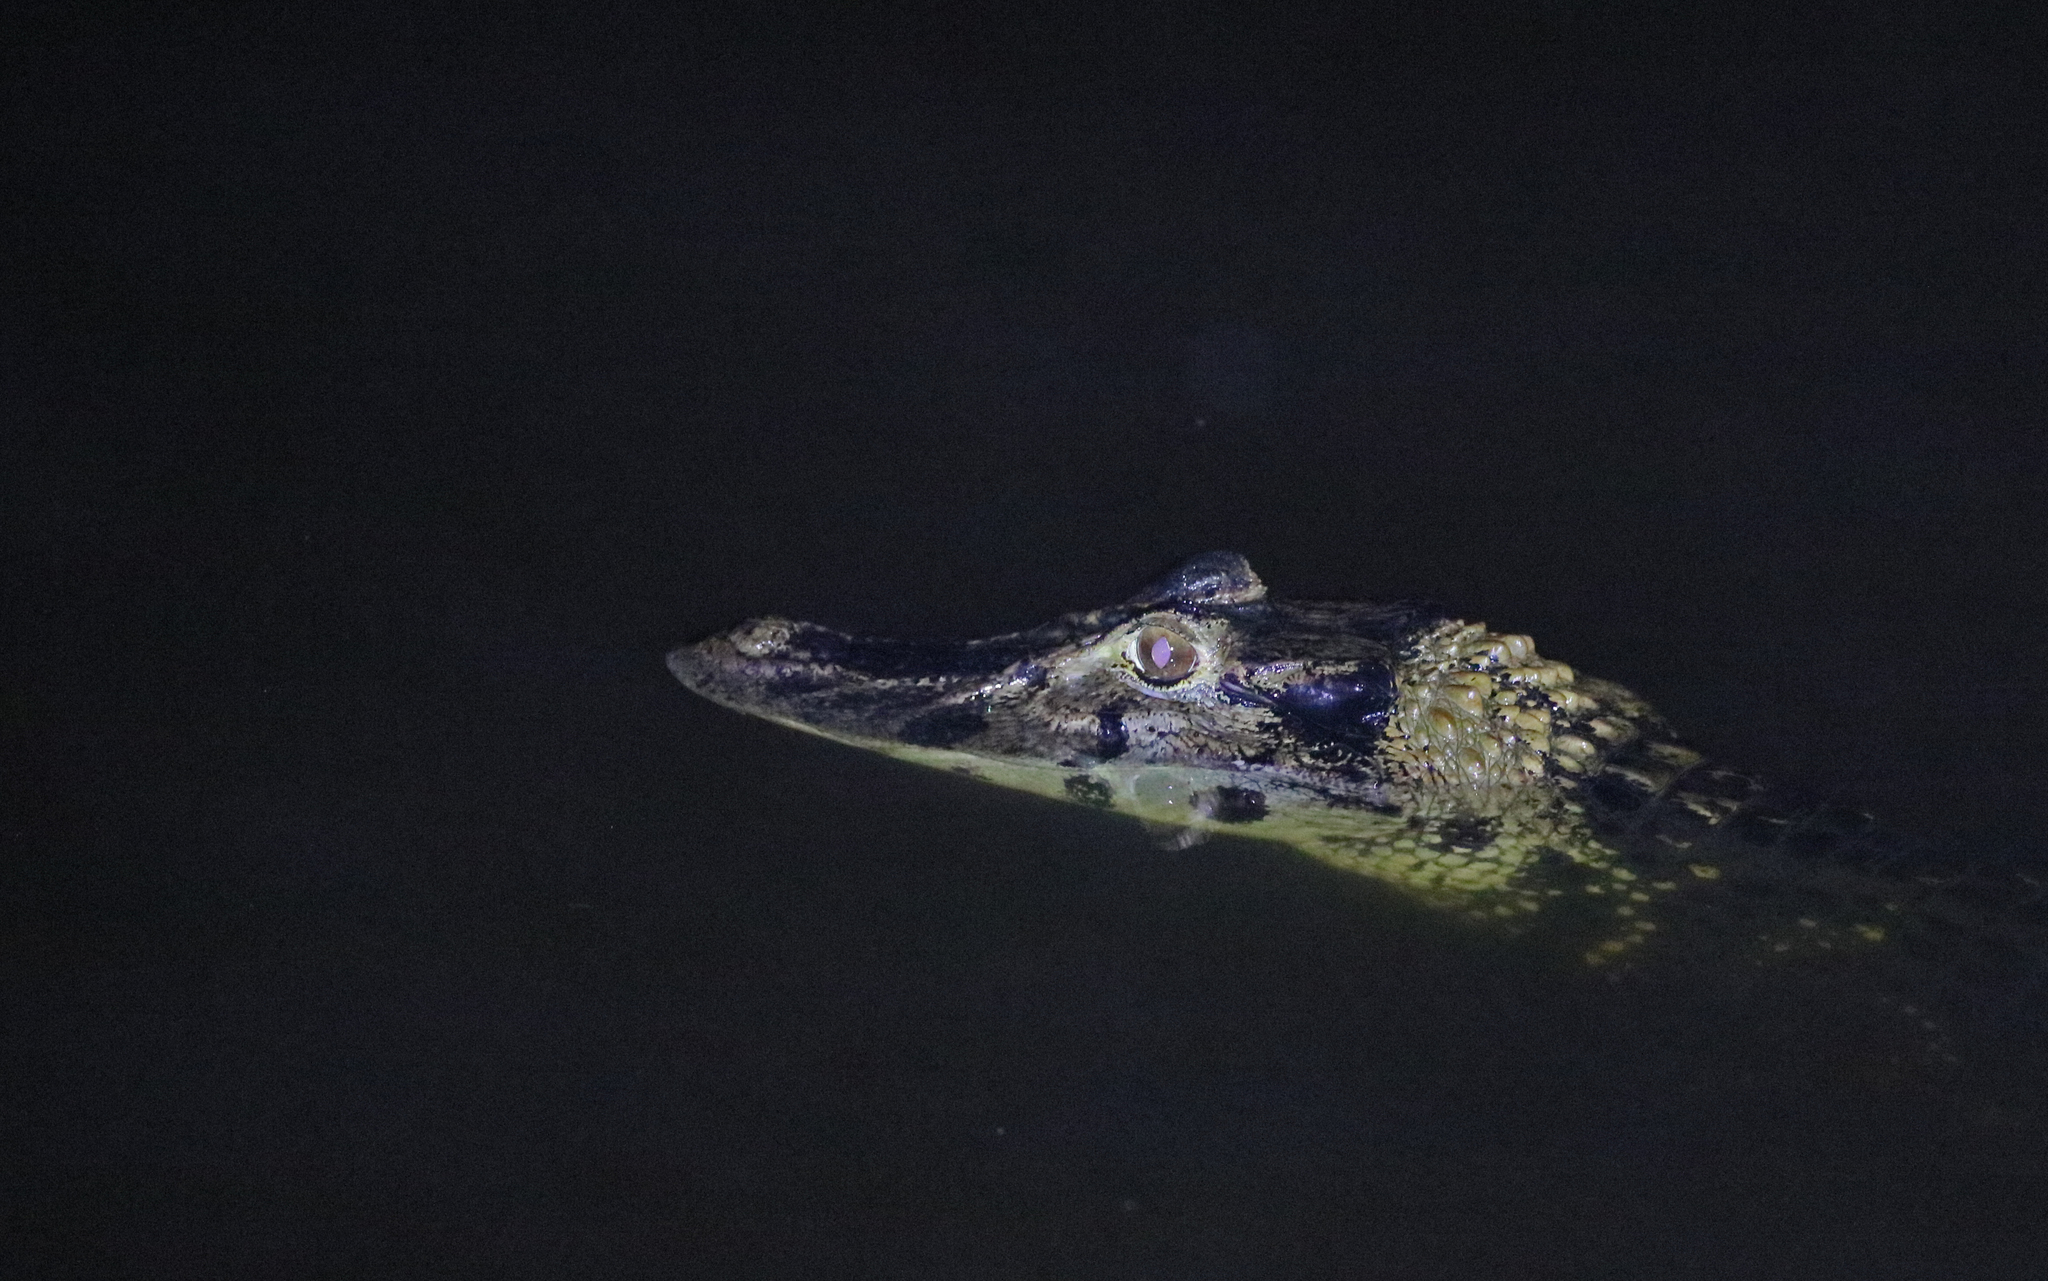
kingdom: Animalia
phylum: Chordata
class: Crocodylia
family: Alligatoridae
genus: Melanosuchus
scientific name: Melanosuchus niger
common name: Black caiman
